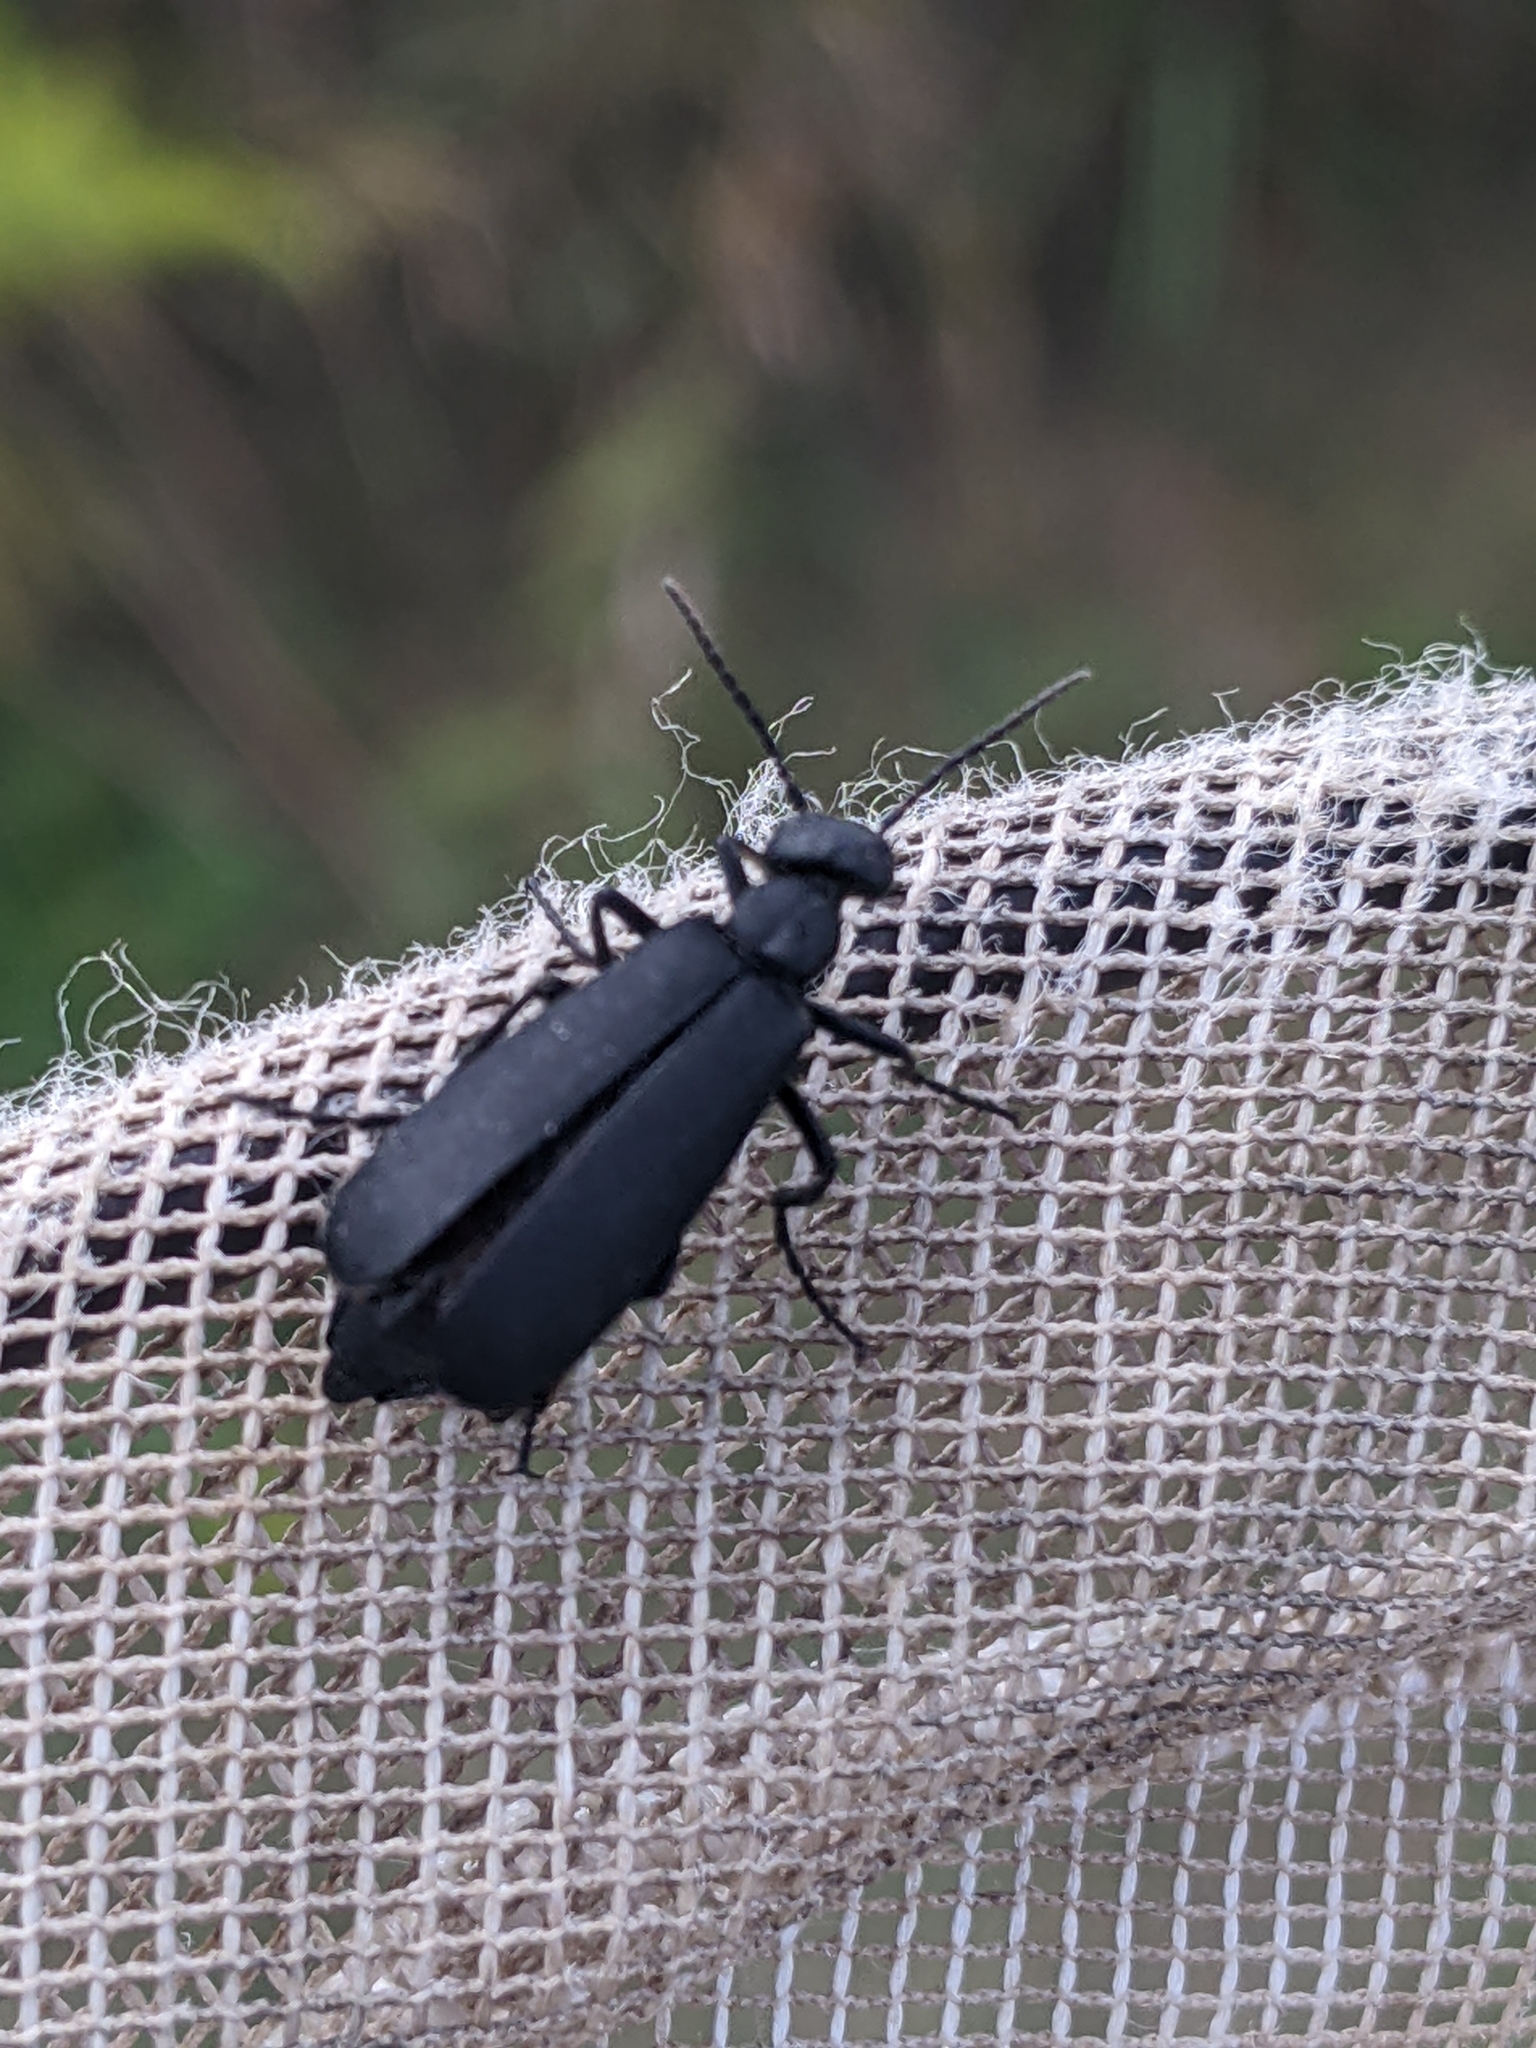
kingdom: Animalia
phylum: Arthropoda
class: Insecta
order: Coleoptera
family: Meloidae
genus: Epicauta
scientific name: Epicauta pensylvanica
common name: Black blister beetle
